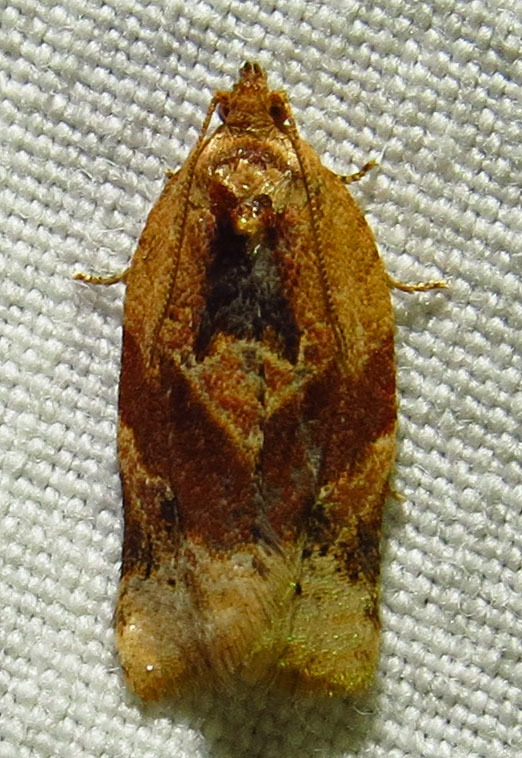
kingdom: Animalia
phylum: Arthropoda
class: Insecta
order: Lepidoptera
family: Tortricidae
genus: Argyrotaenia
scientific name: Argyrotaenia velutinana
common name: Red-banded leafroller moth
